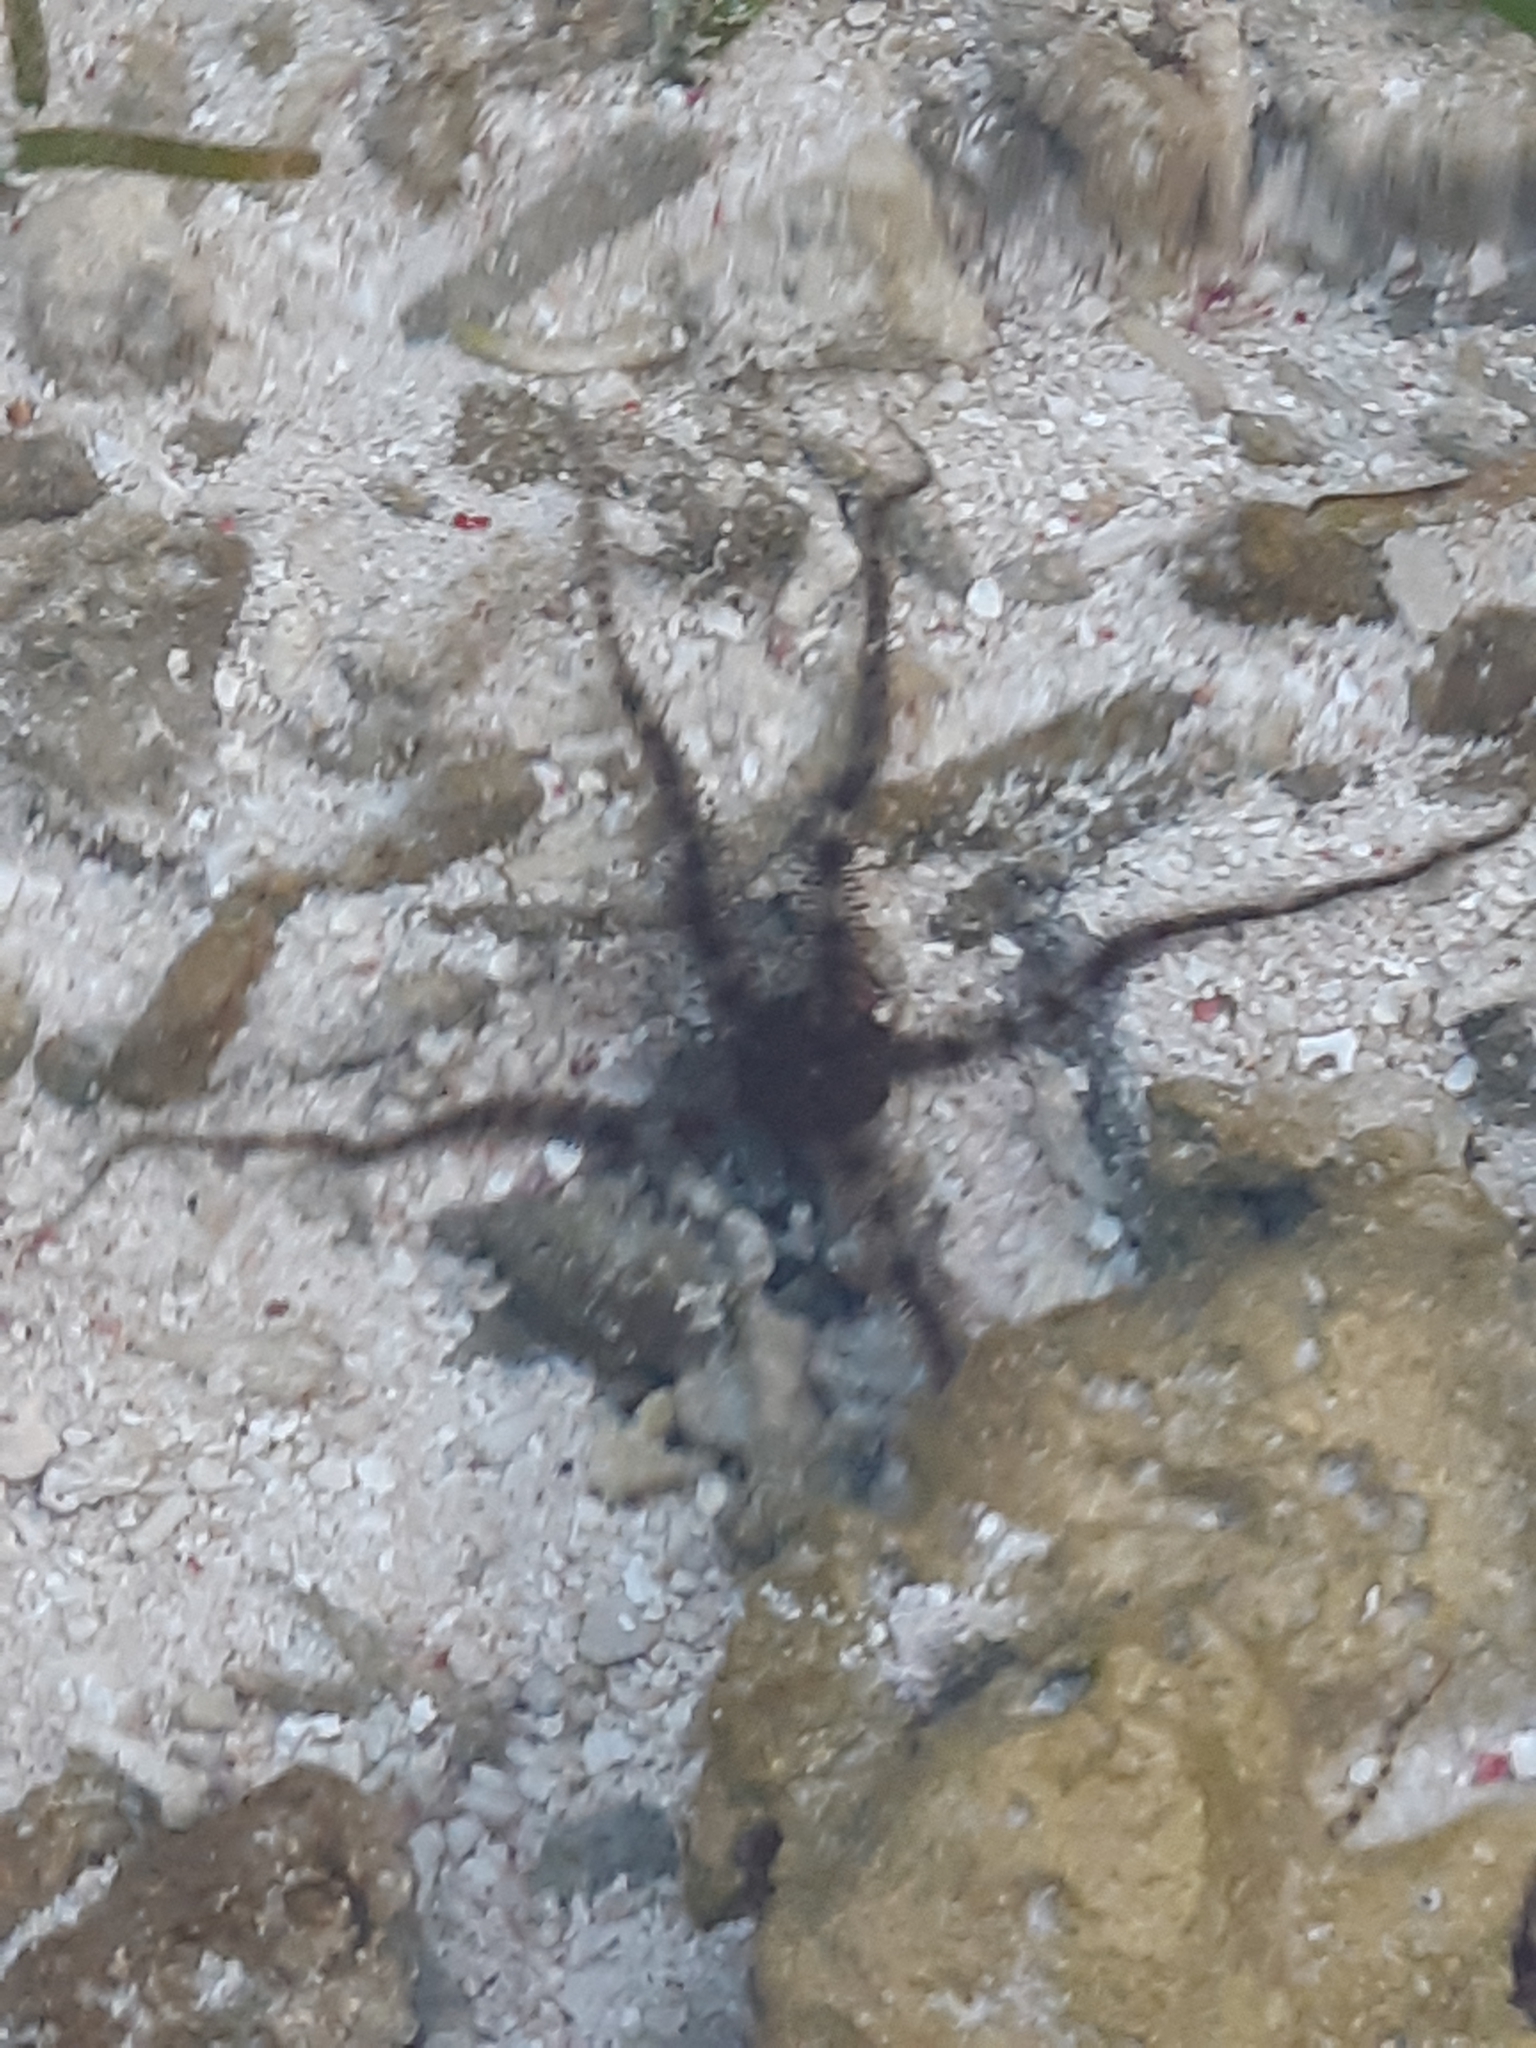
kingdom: Animalia
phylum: Echinodermata
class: Ophiuroidea
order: Ophiacanthida
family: Ophiocomidae
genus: Ophiocoma
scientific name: Ophiocoma scolopendrina
